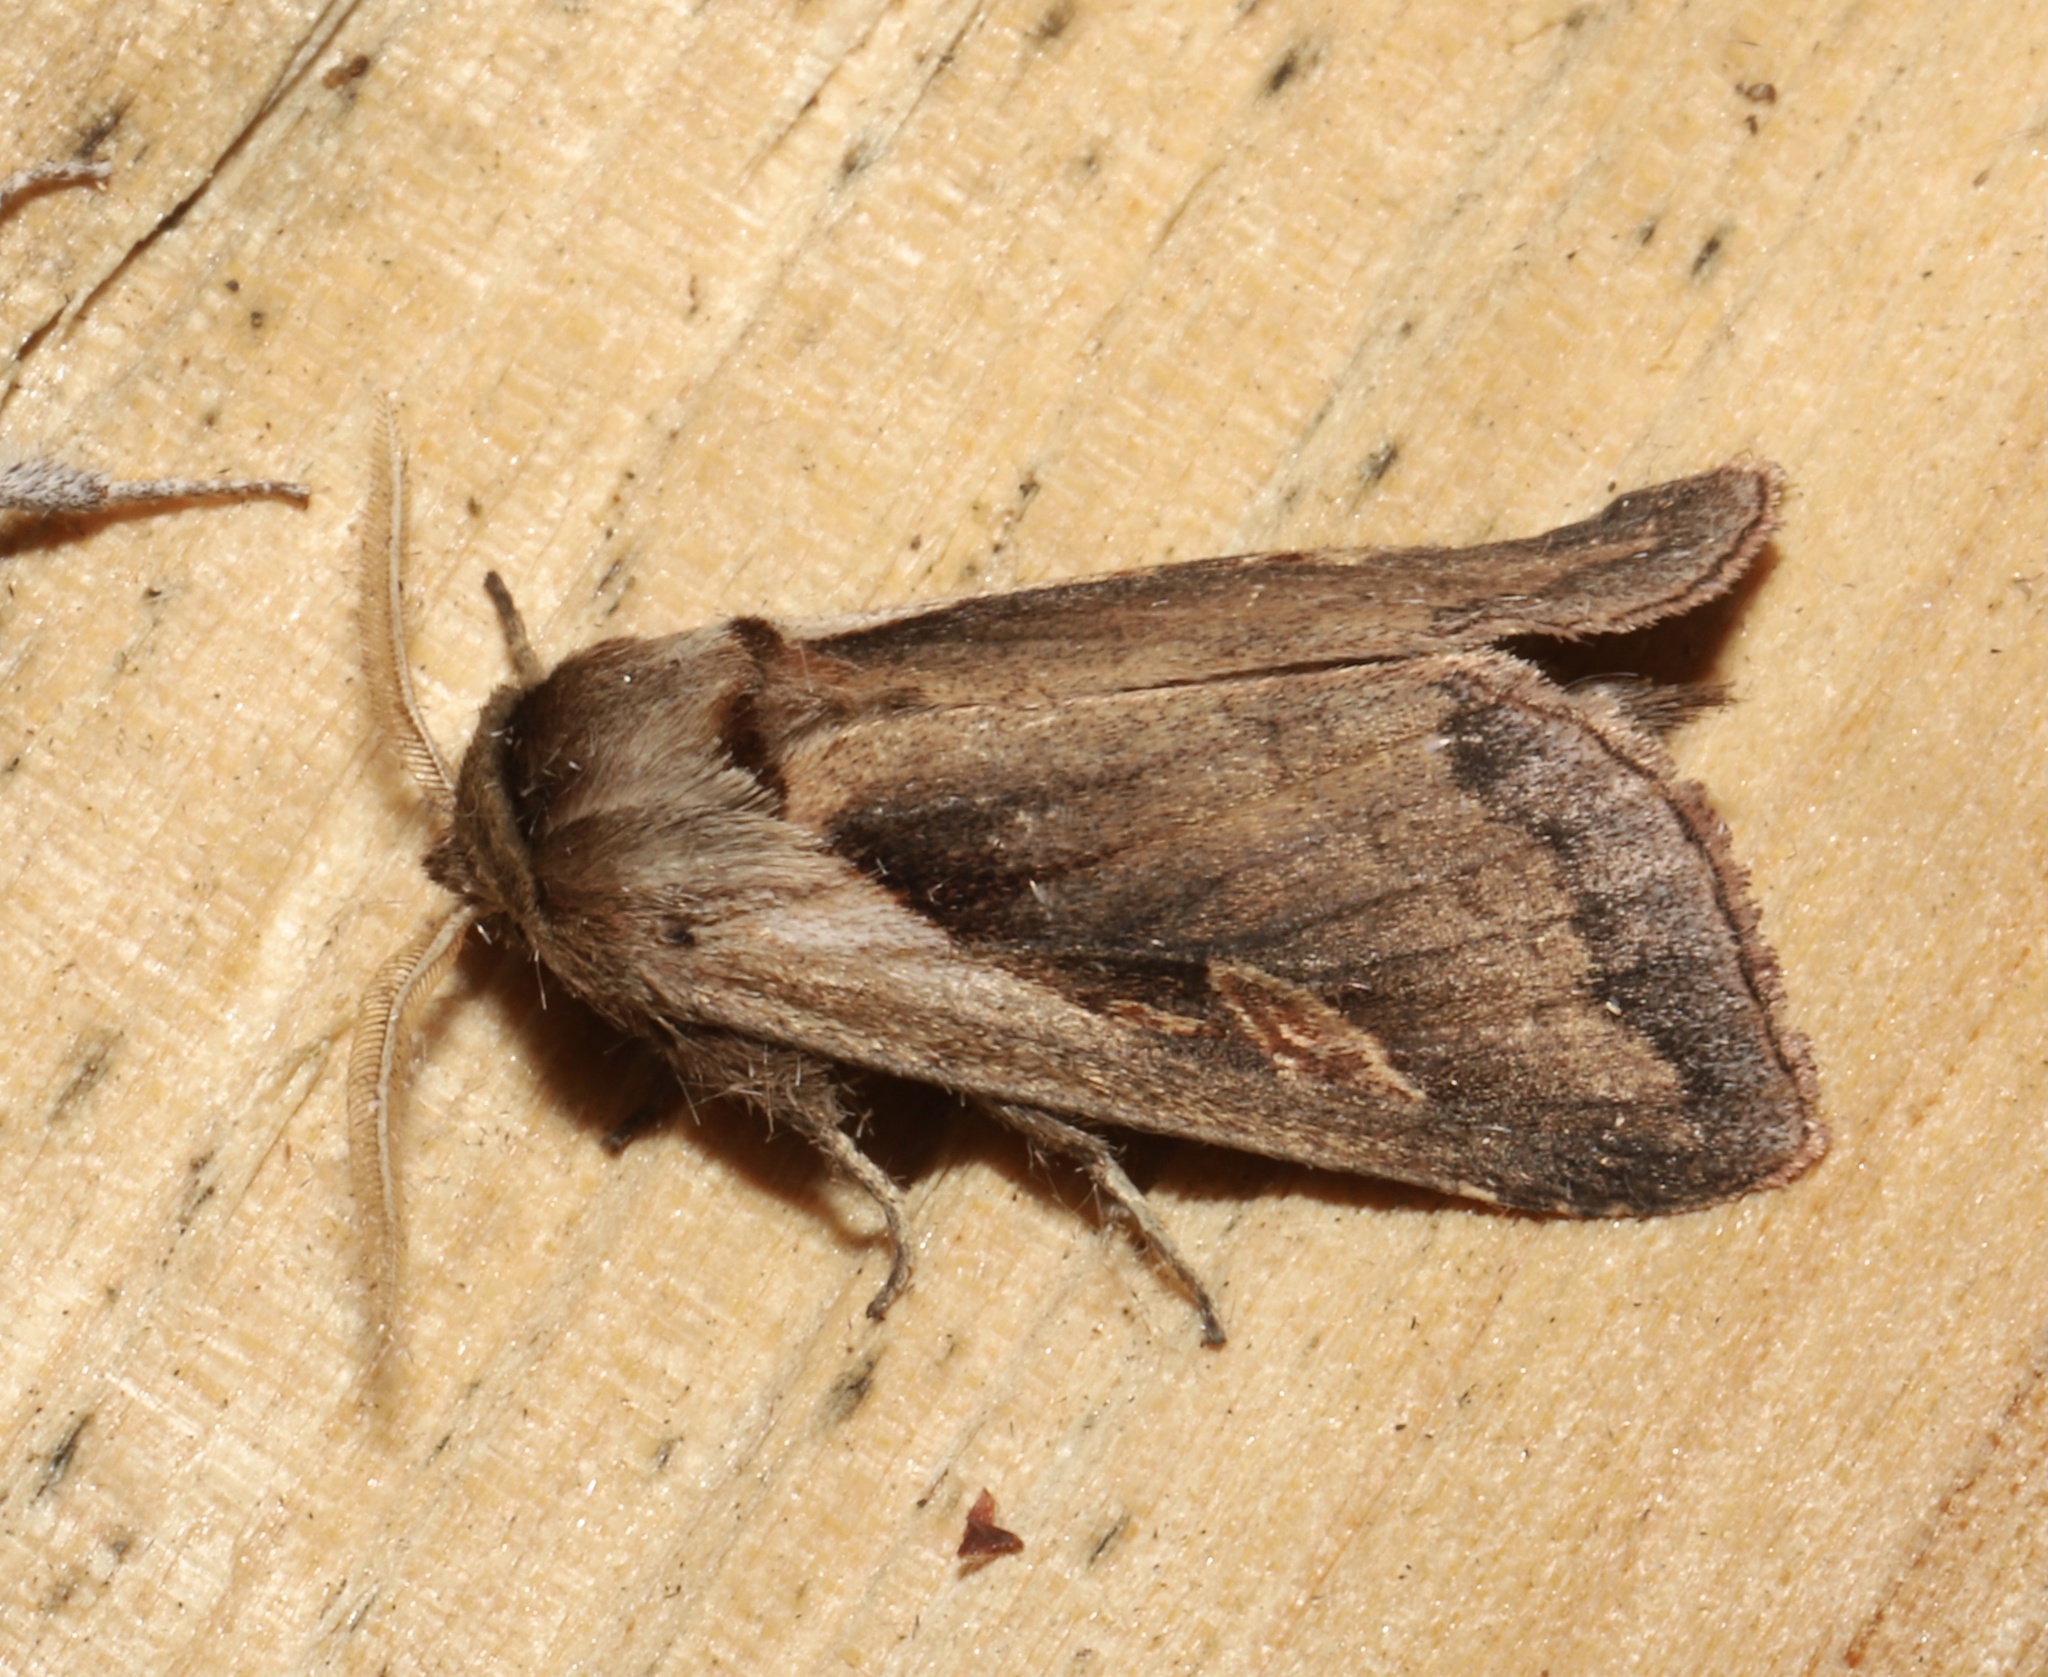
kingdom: Animalia
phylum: Arthropoda
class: Insecta
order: Lepidoptera
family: Noctuidae
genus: Bellura
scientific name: Bellura obliqua
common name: Cattail borer moth
